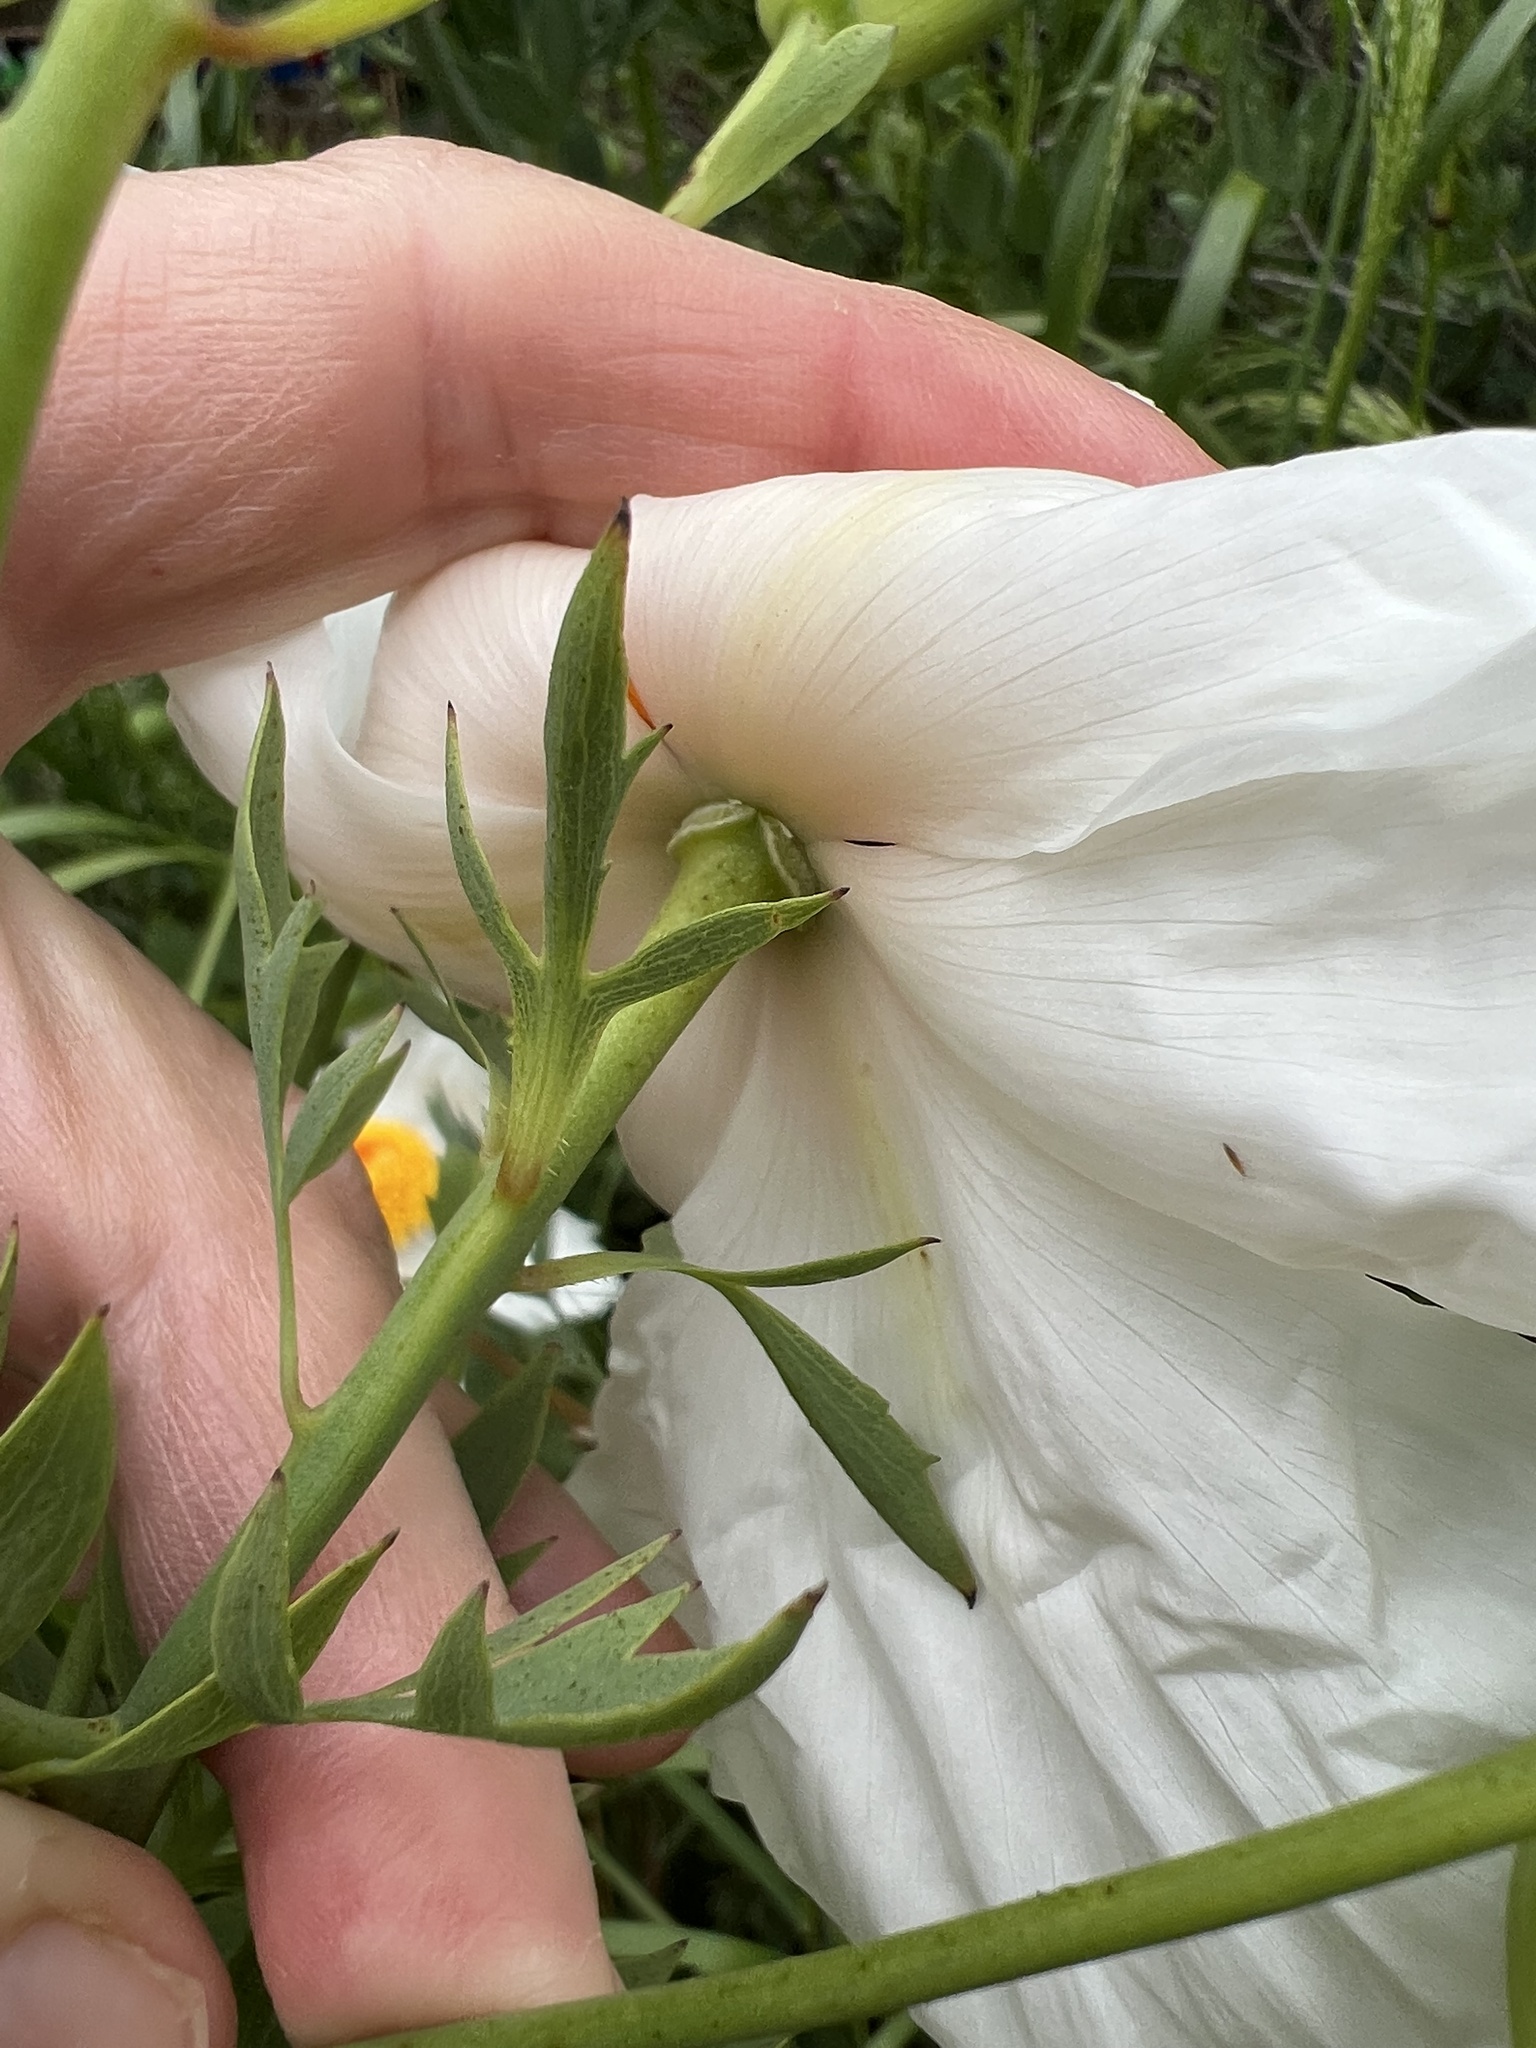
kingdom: Plantae
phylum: Tracheophyta
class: Magnoliopsida
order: Ranunculales
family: Papaveraceae
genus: Romneya
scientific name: Romneya coulteri
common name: California tree-poppy
